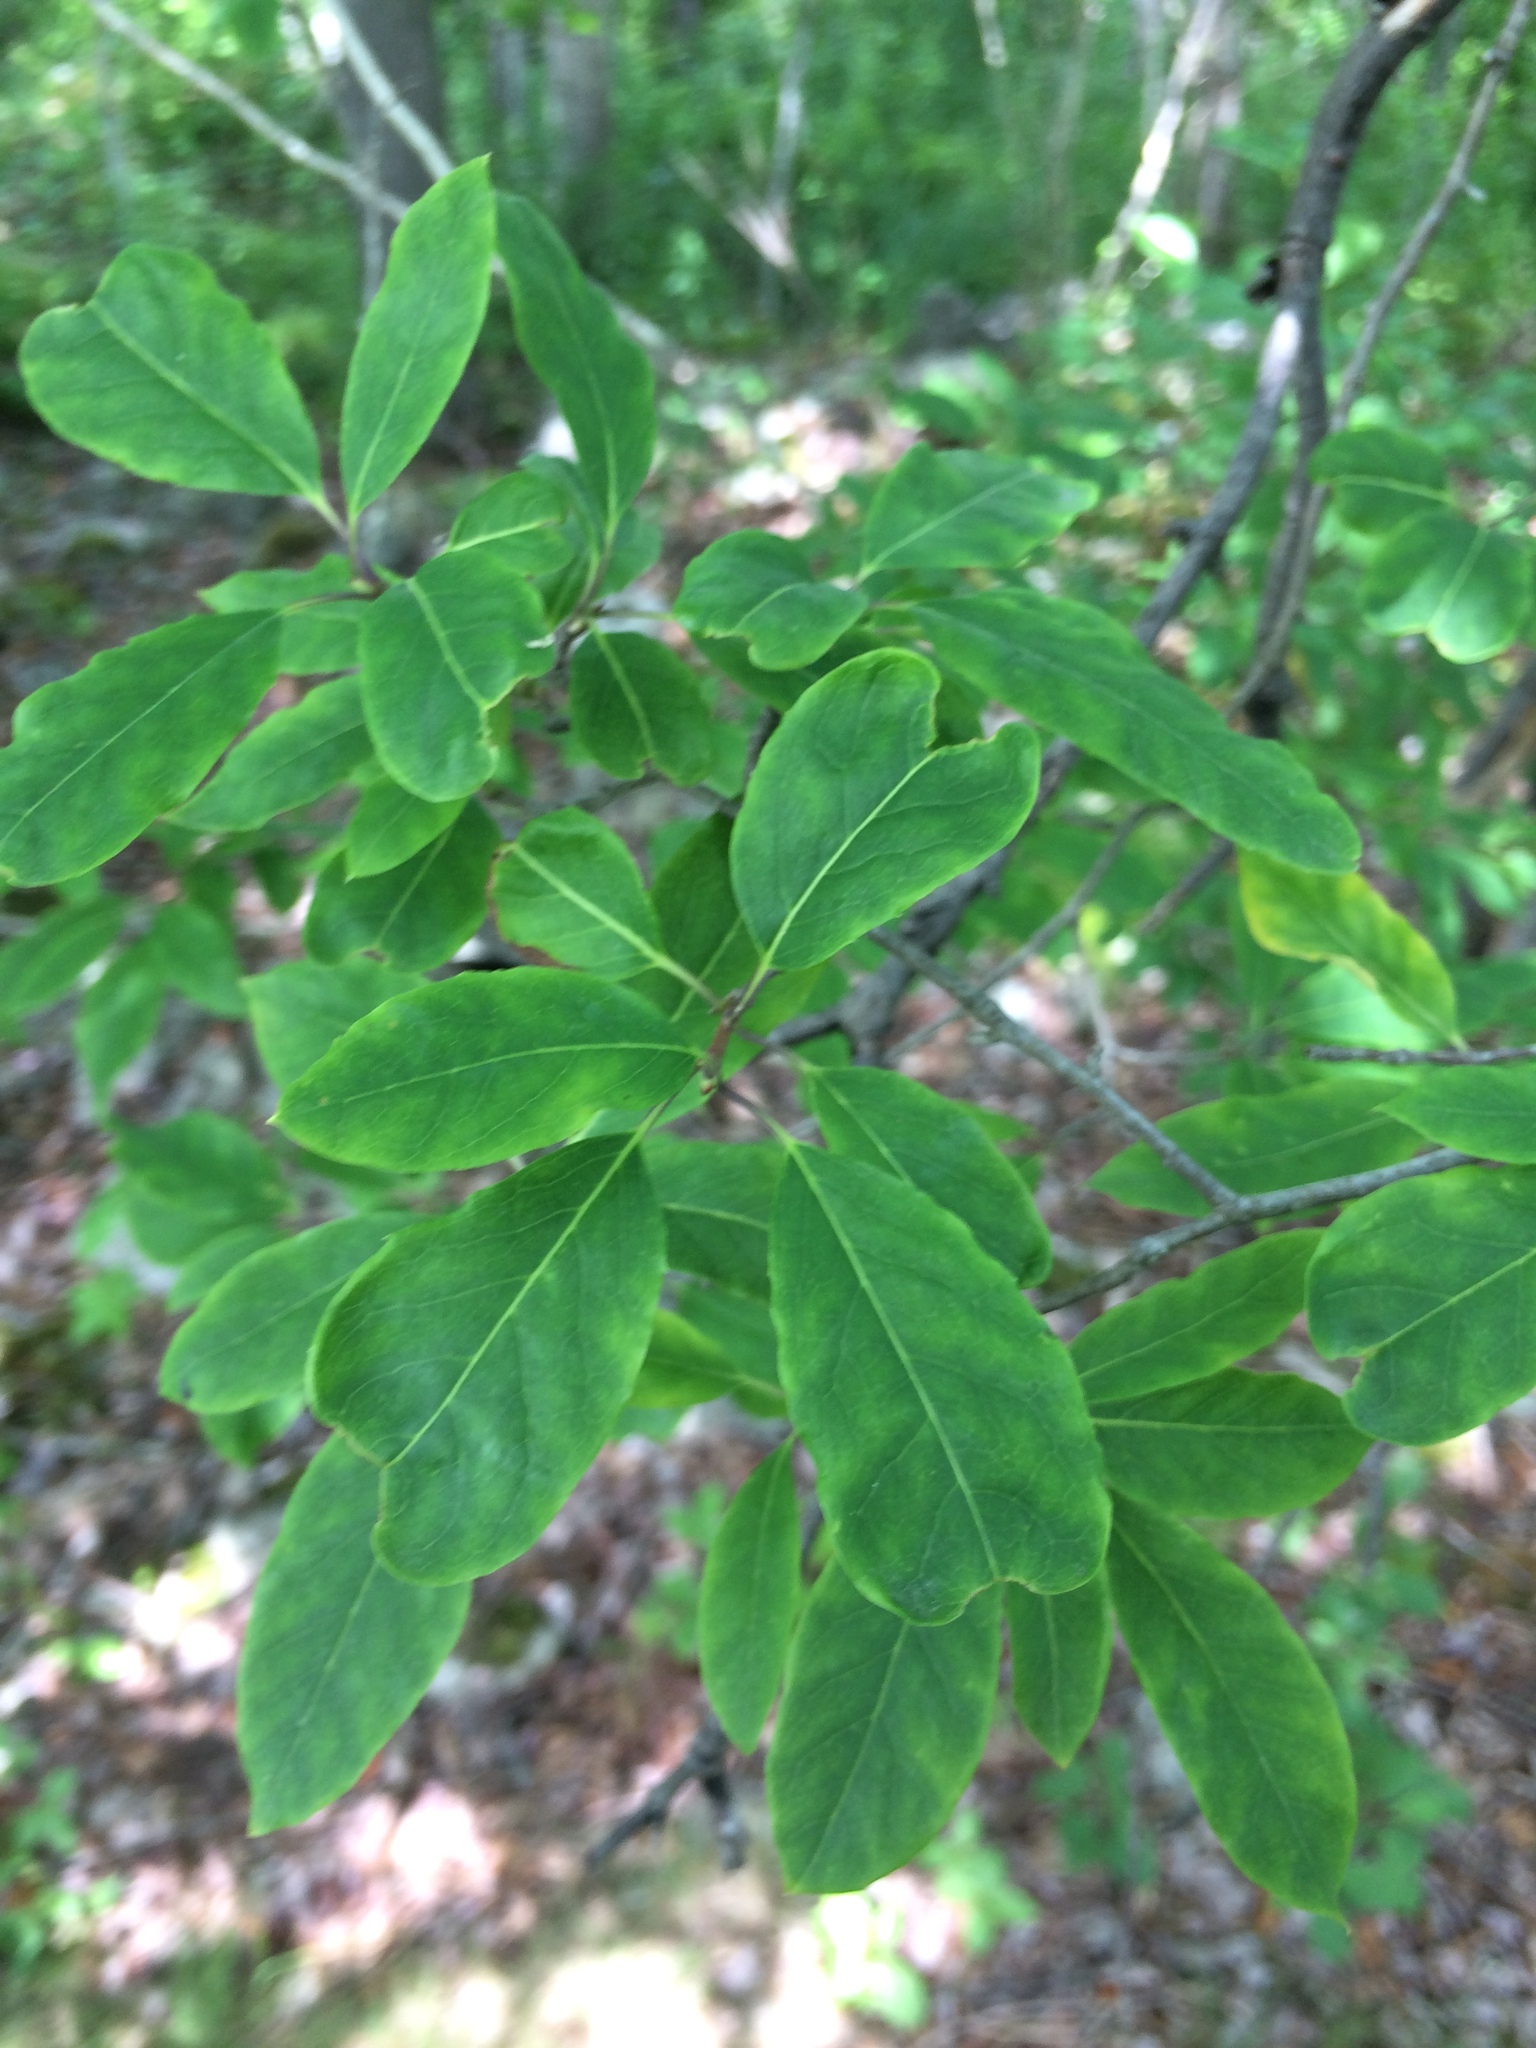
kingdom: Plantae
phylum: Tracheophyta
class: Magnoliopsida
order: Aquifoliales
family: Aquifoliaceae
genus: Ilex
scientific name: Ilex mucronata
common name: Catberry
